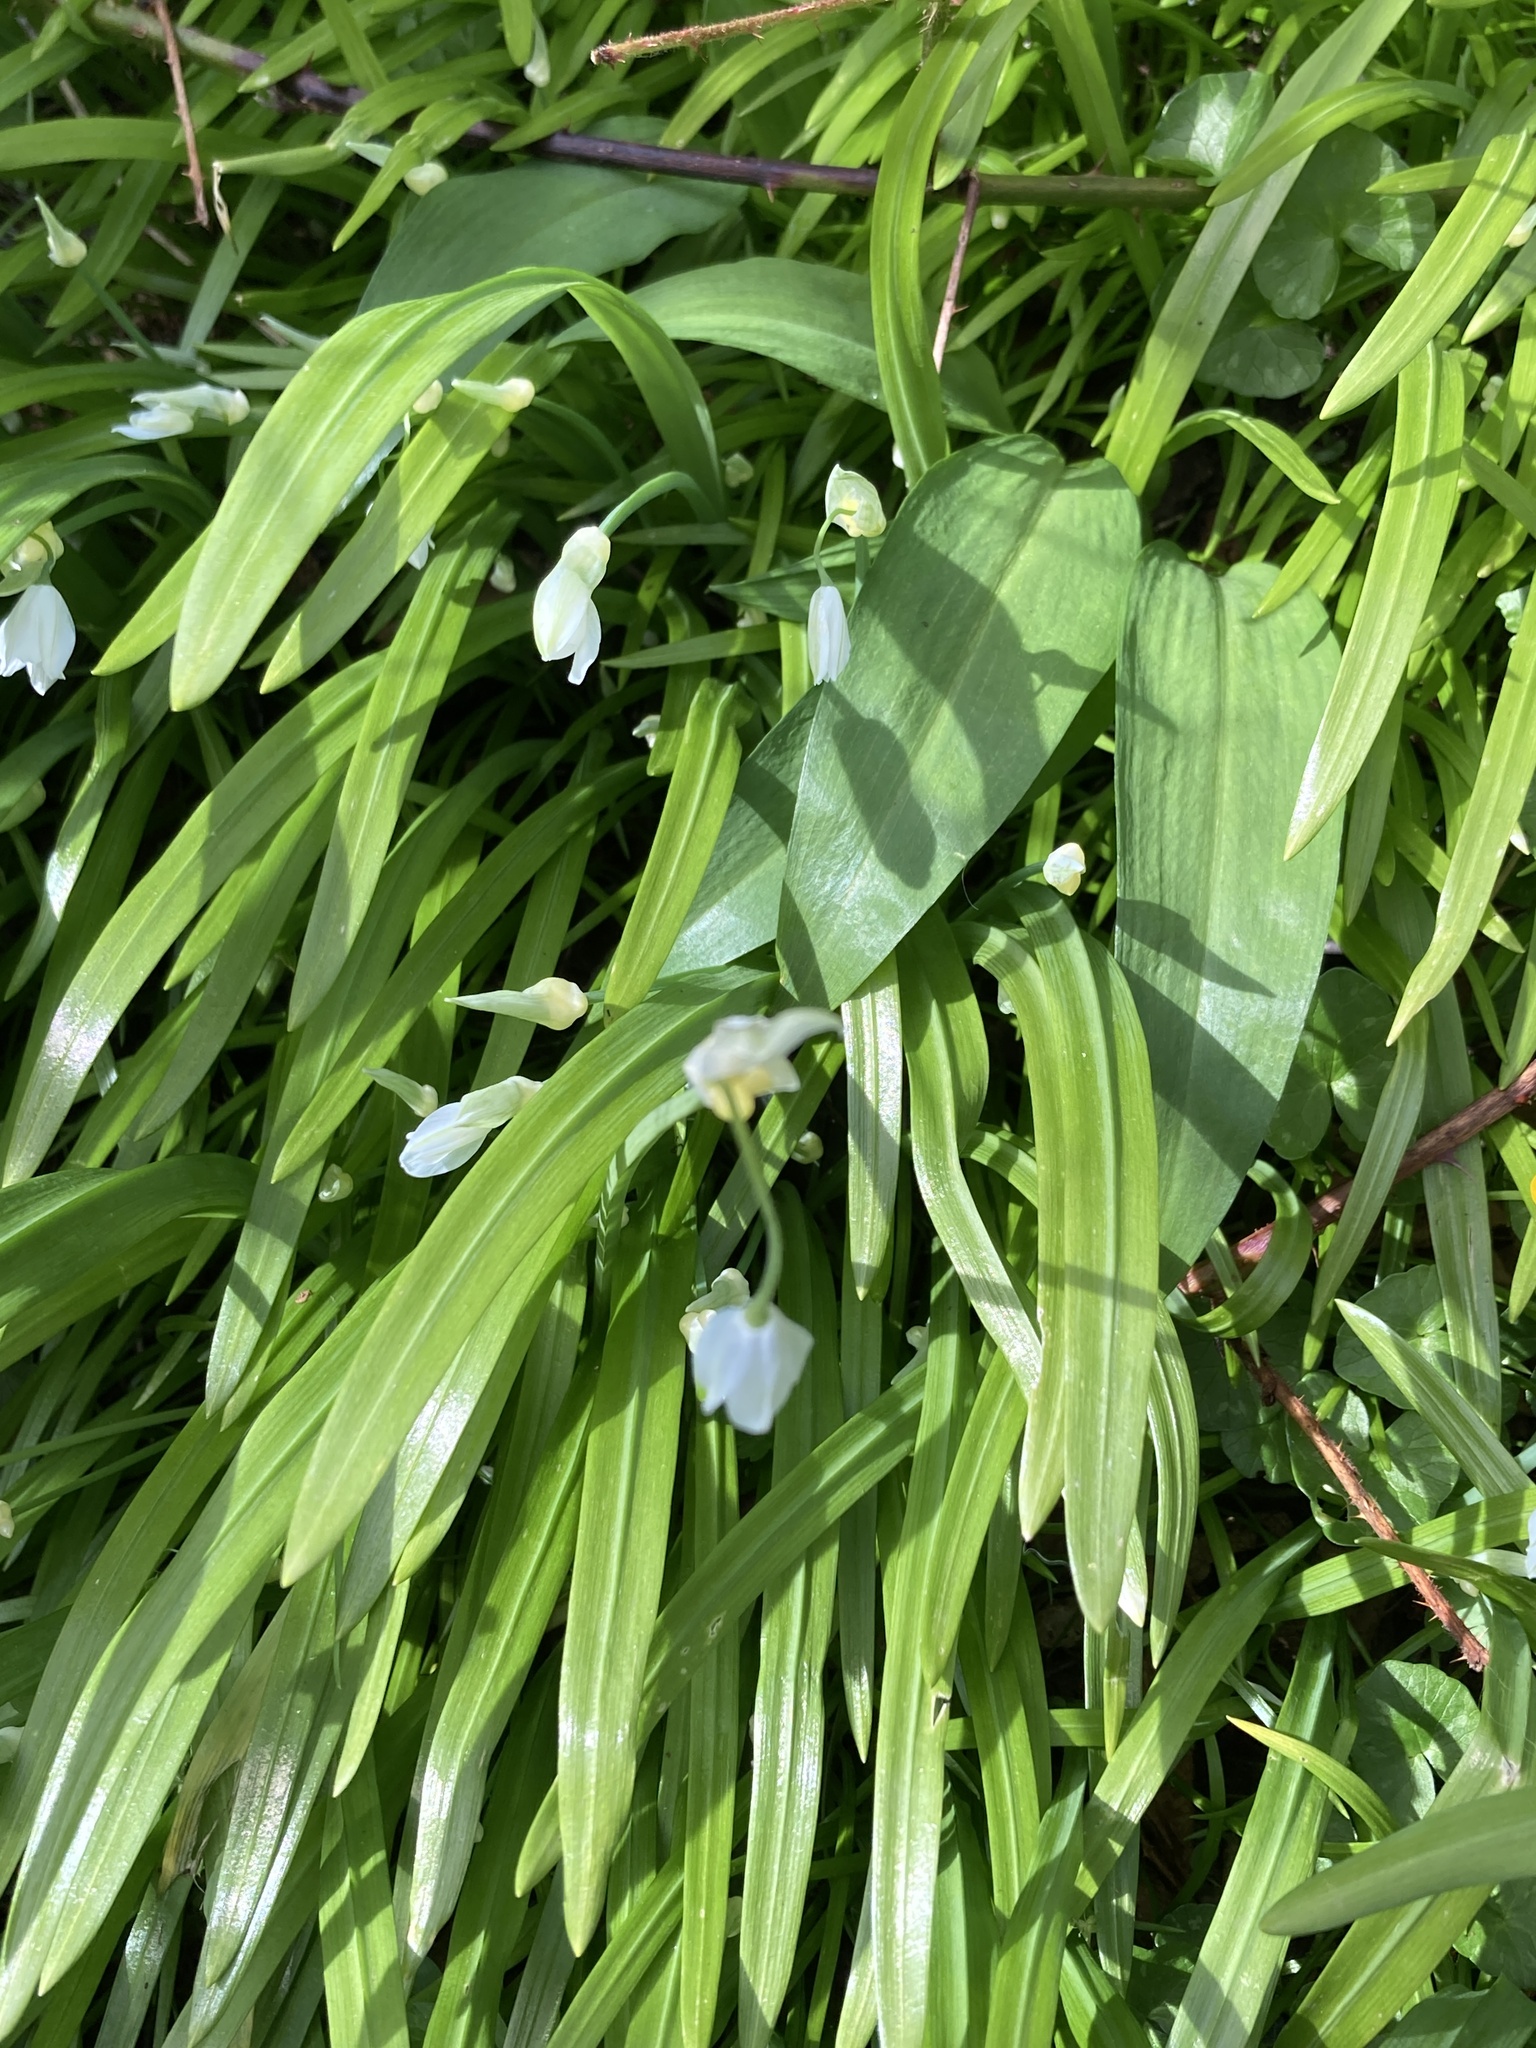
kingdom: Plantae
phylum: Tracheophyta
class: Liliopsida
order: Asparagales
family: Amaryllidaceae
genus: Allium
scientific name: Allium paradoxum
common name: Few-flowered garlic
